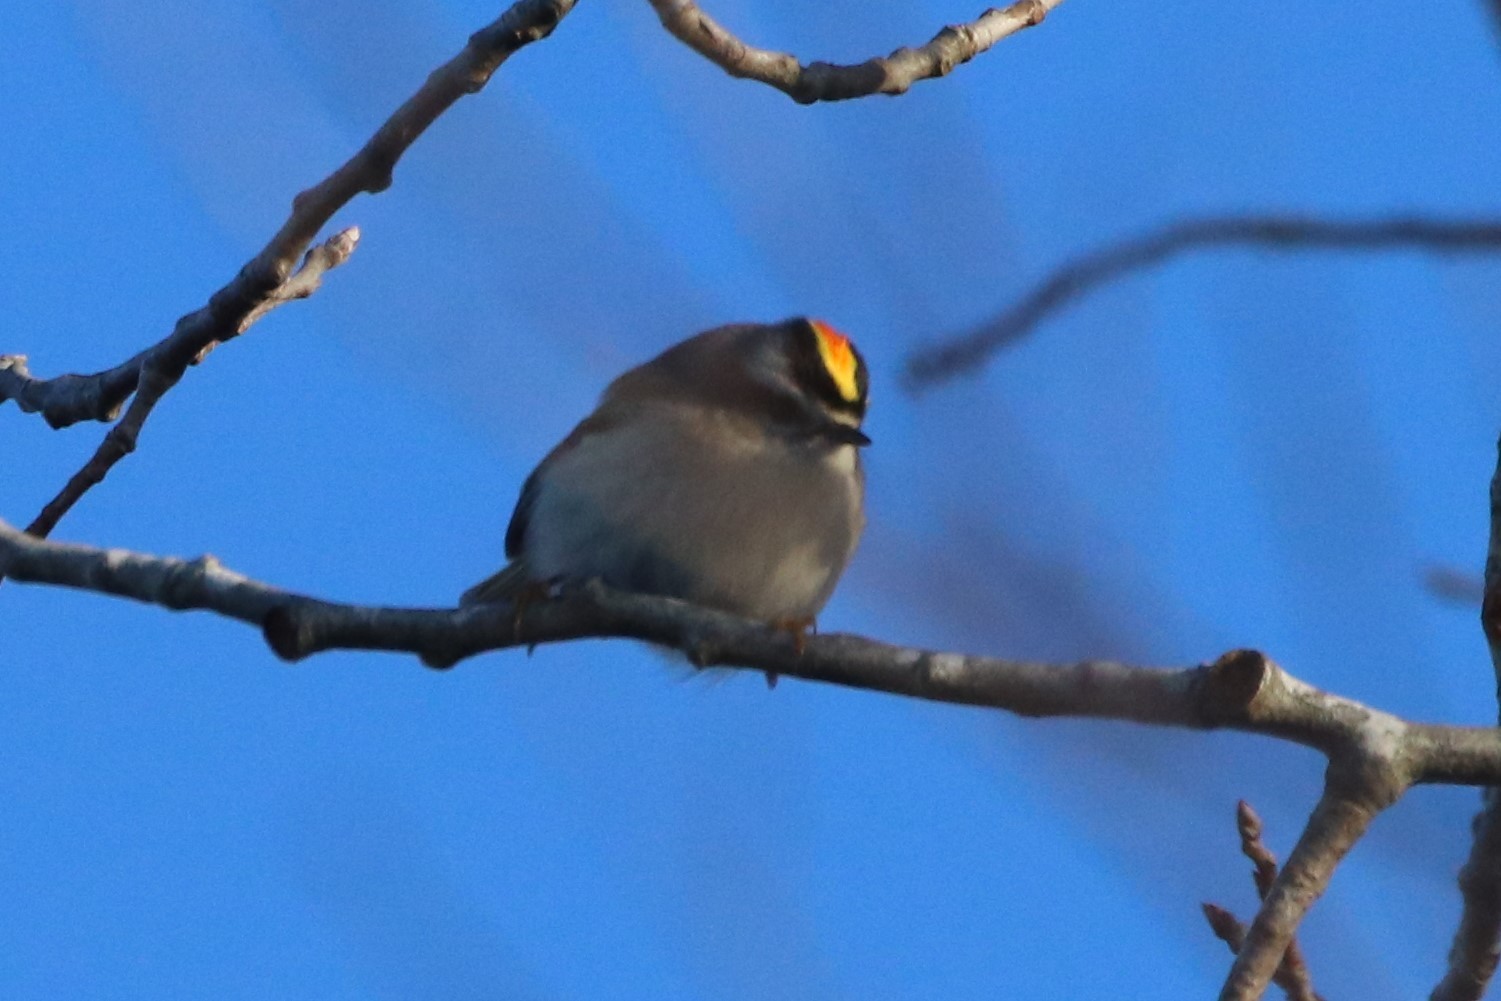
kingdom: Animalia
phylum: Chordata
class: Aves
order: Passeriformes
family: Regulidae
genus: Regulus
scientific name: Regulus satrapa
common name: Golden-crowned kinglet
